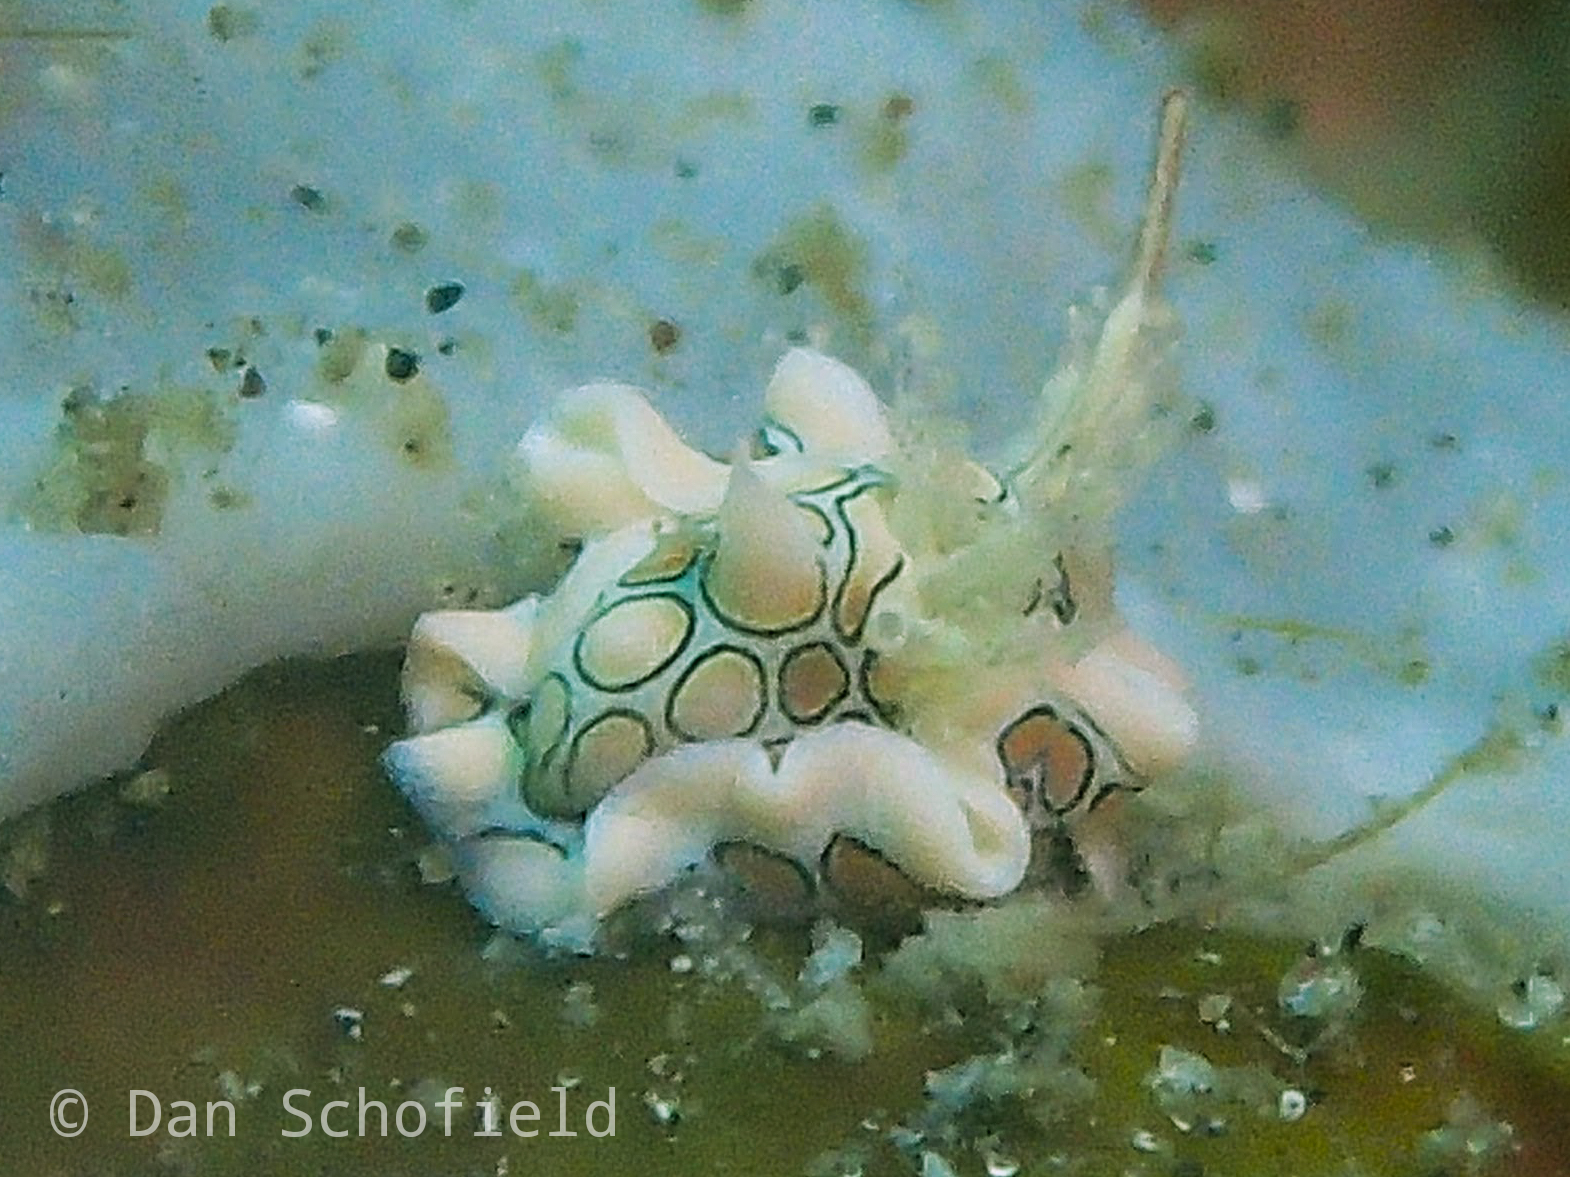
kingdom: Animalia
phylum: Mollusca
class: Gastropoda
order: Cephalaspidea
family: Gastropteridae
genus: Sagaminopteron
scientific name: Sagaminopteron psychedelicum
